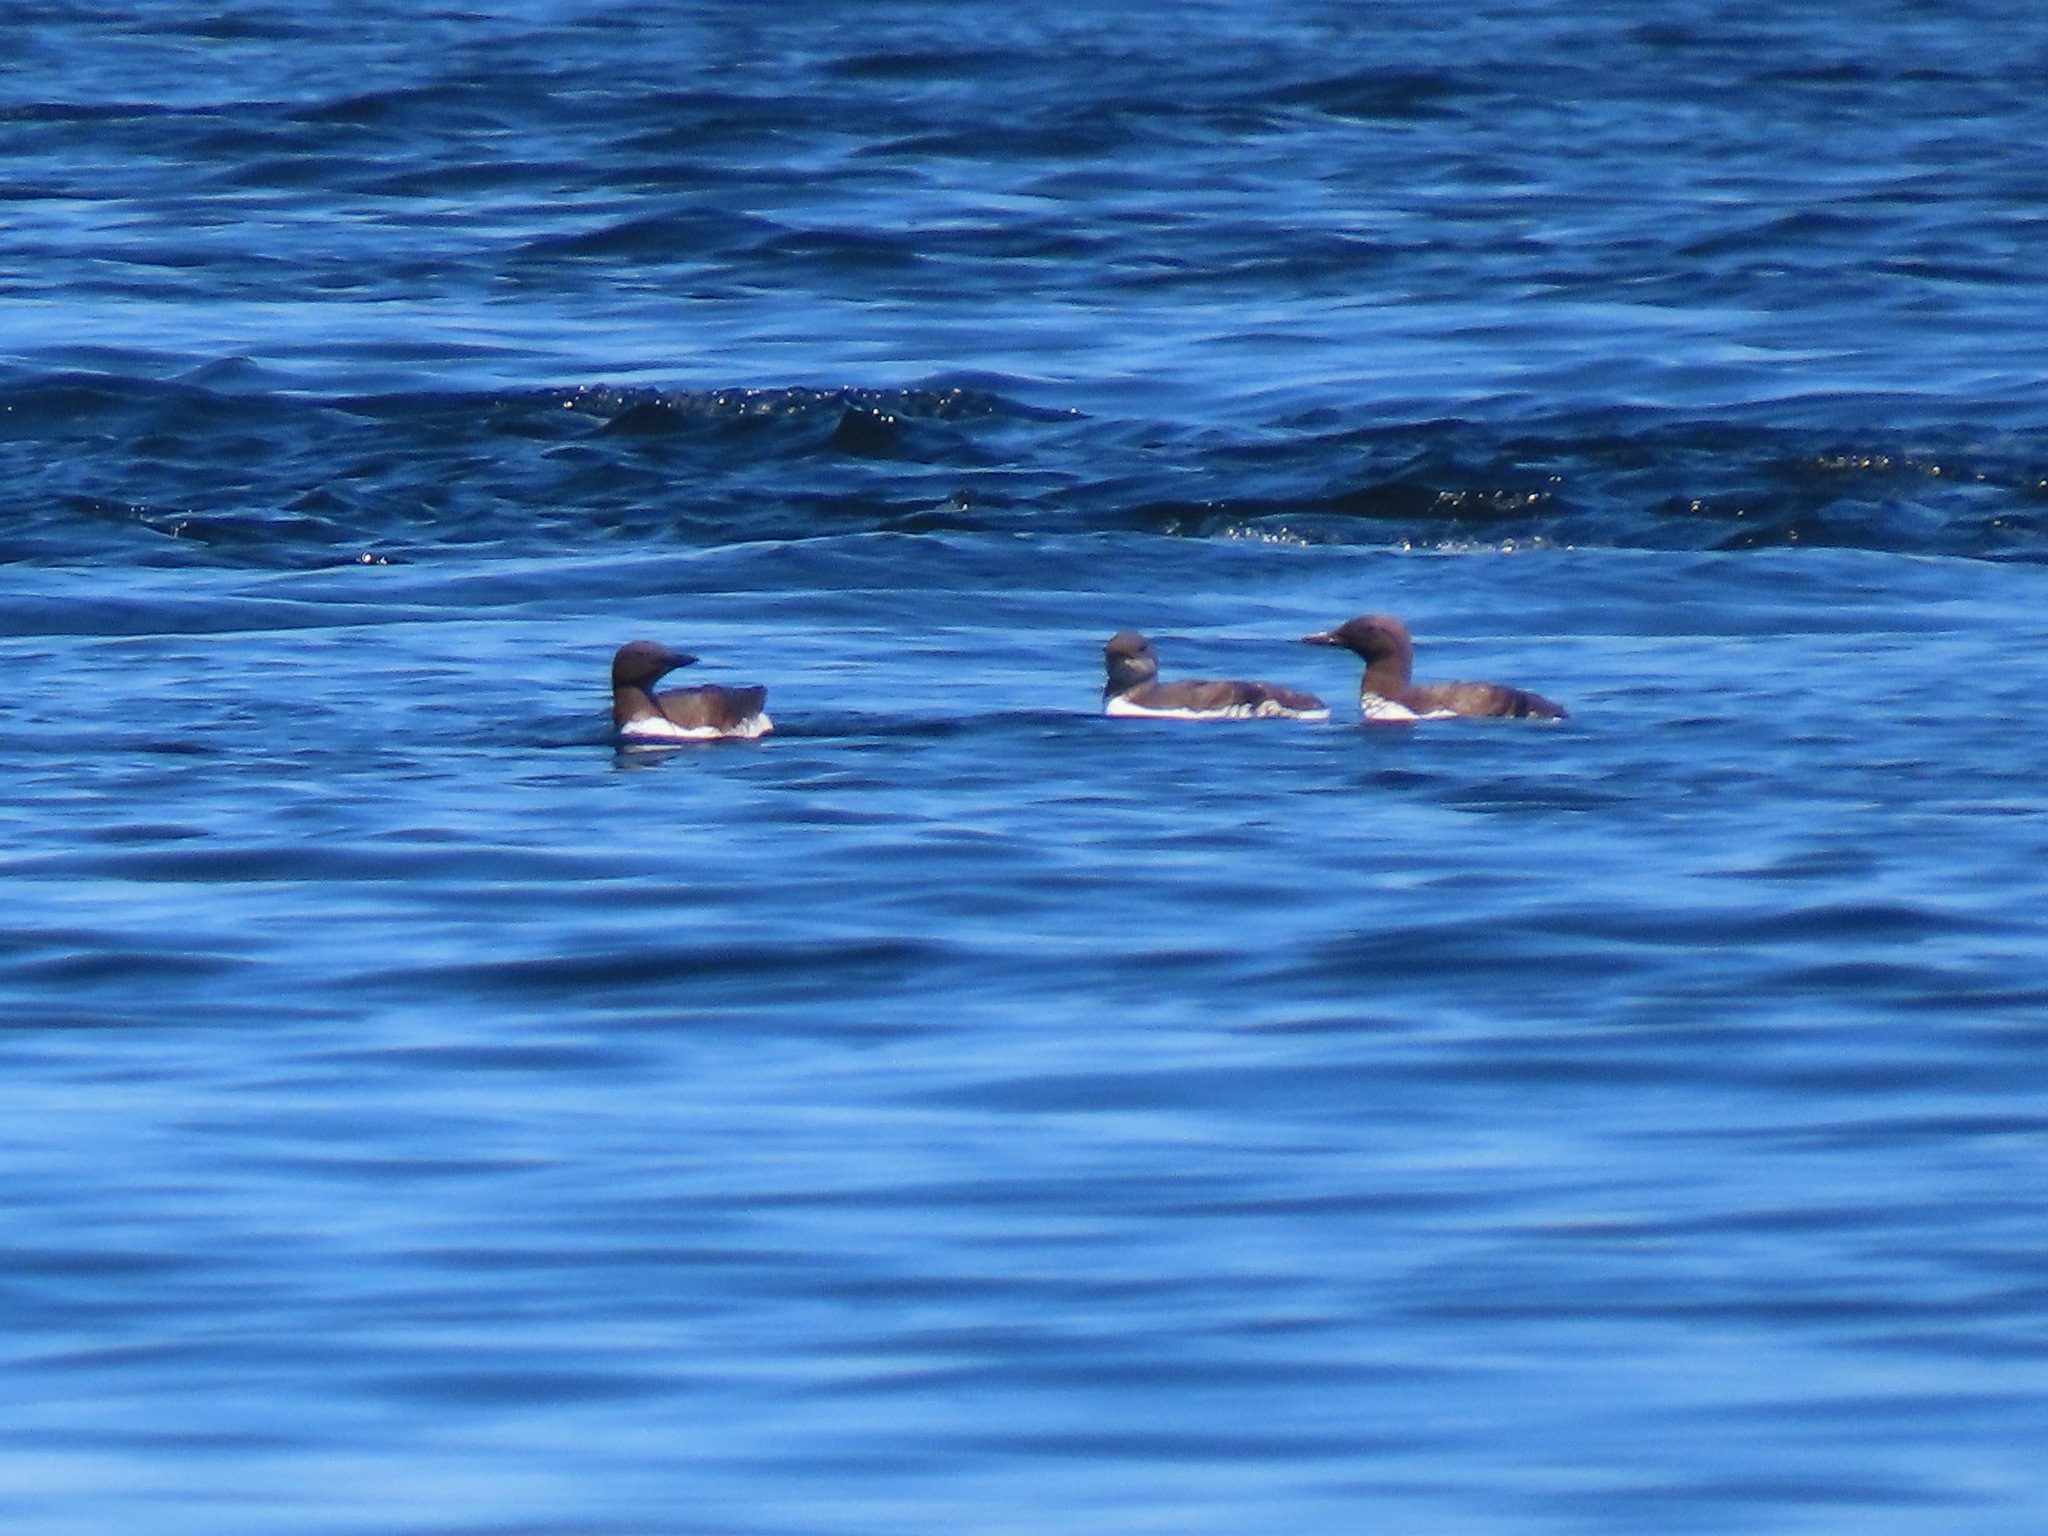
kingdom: Animalia
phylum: Chordata
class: Aves
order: Charadriiformes
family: Alcidae
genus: Uria
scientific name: Uria aalge
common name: Common murre
